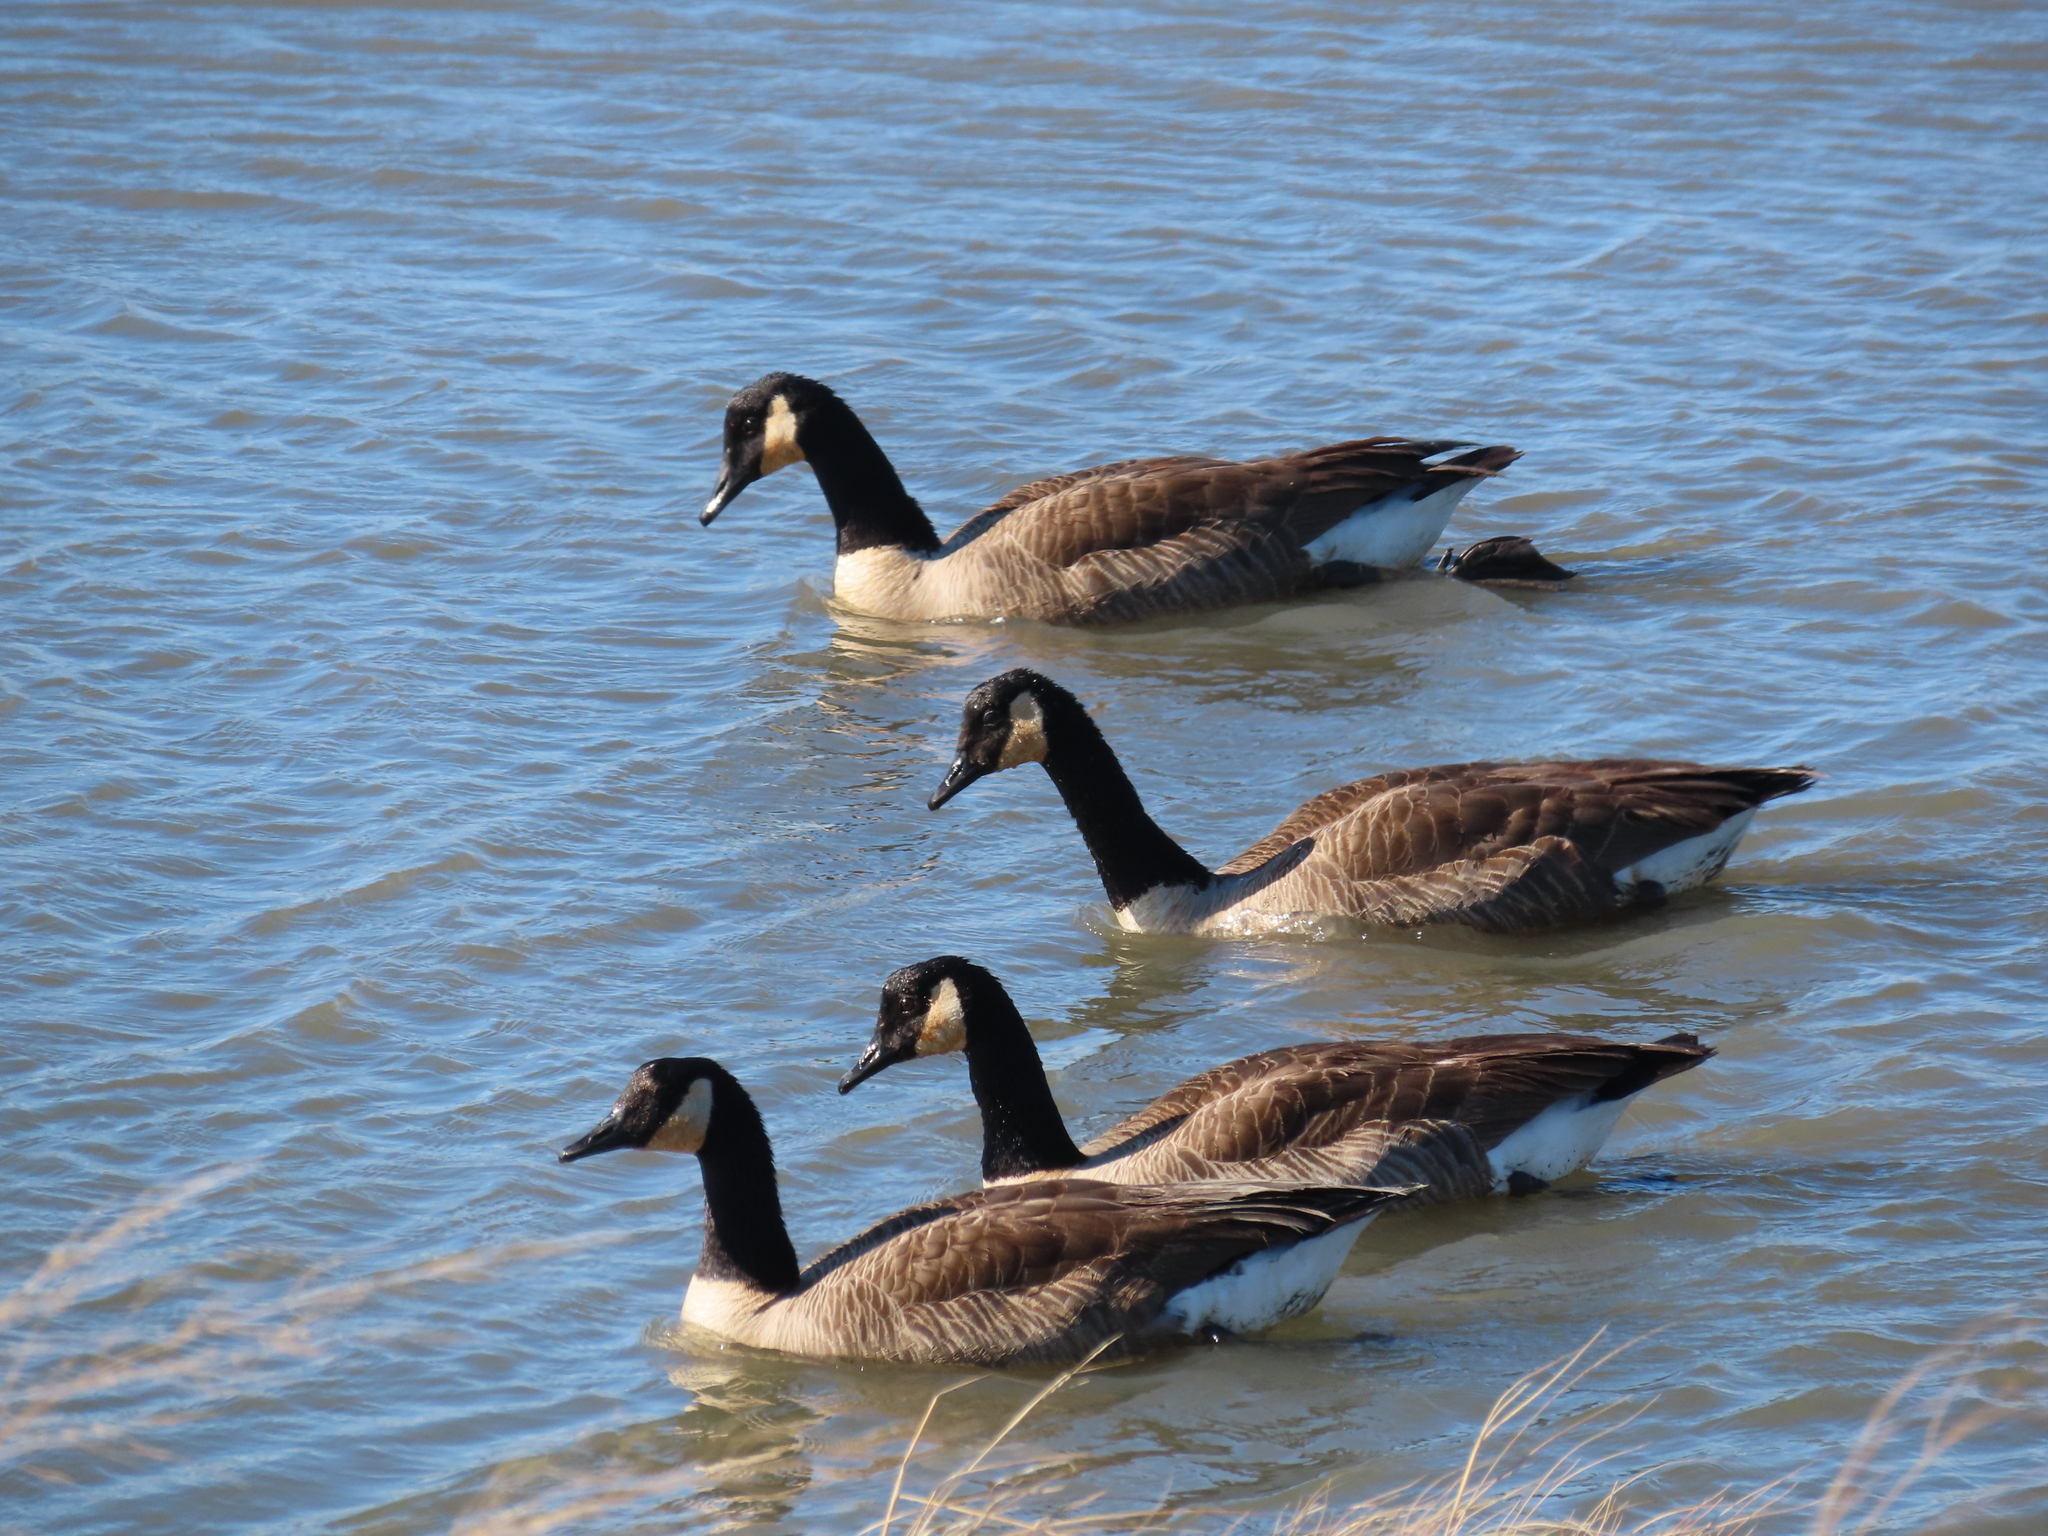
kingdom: Animalia
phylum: Chordata
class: Aves
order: Anseriformes
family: Anatidae
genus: Branta
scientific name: Branta canadensis
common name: Canada goose
